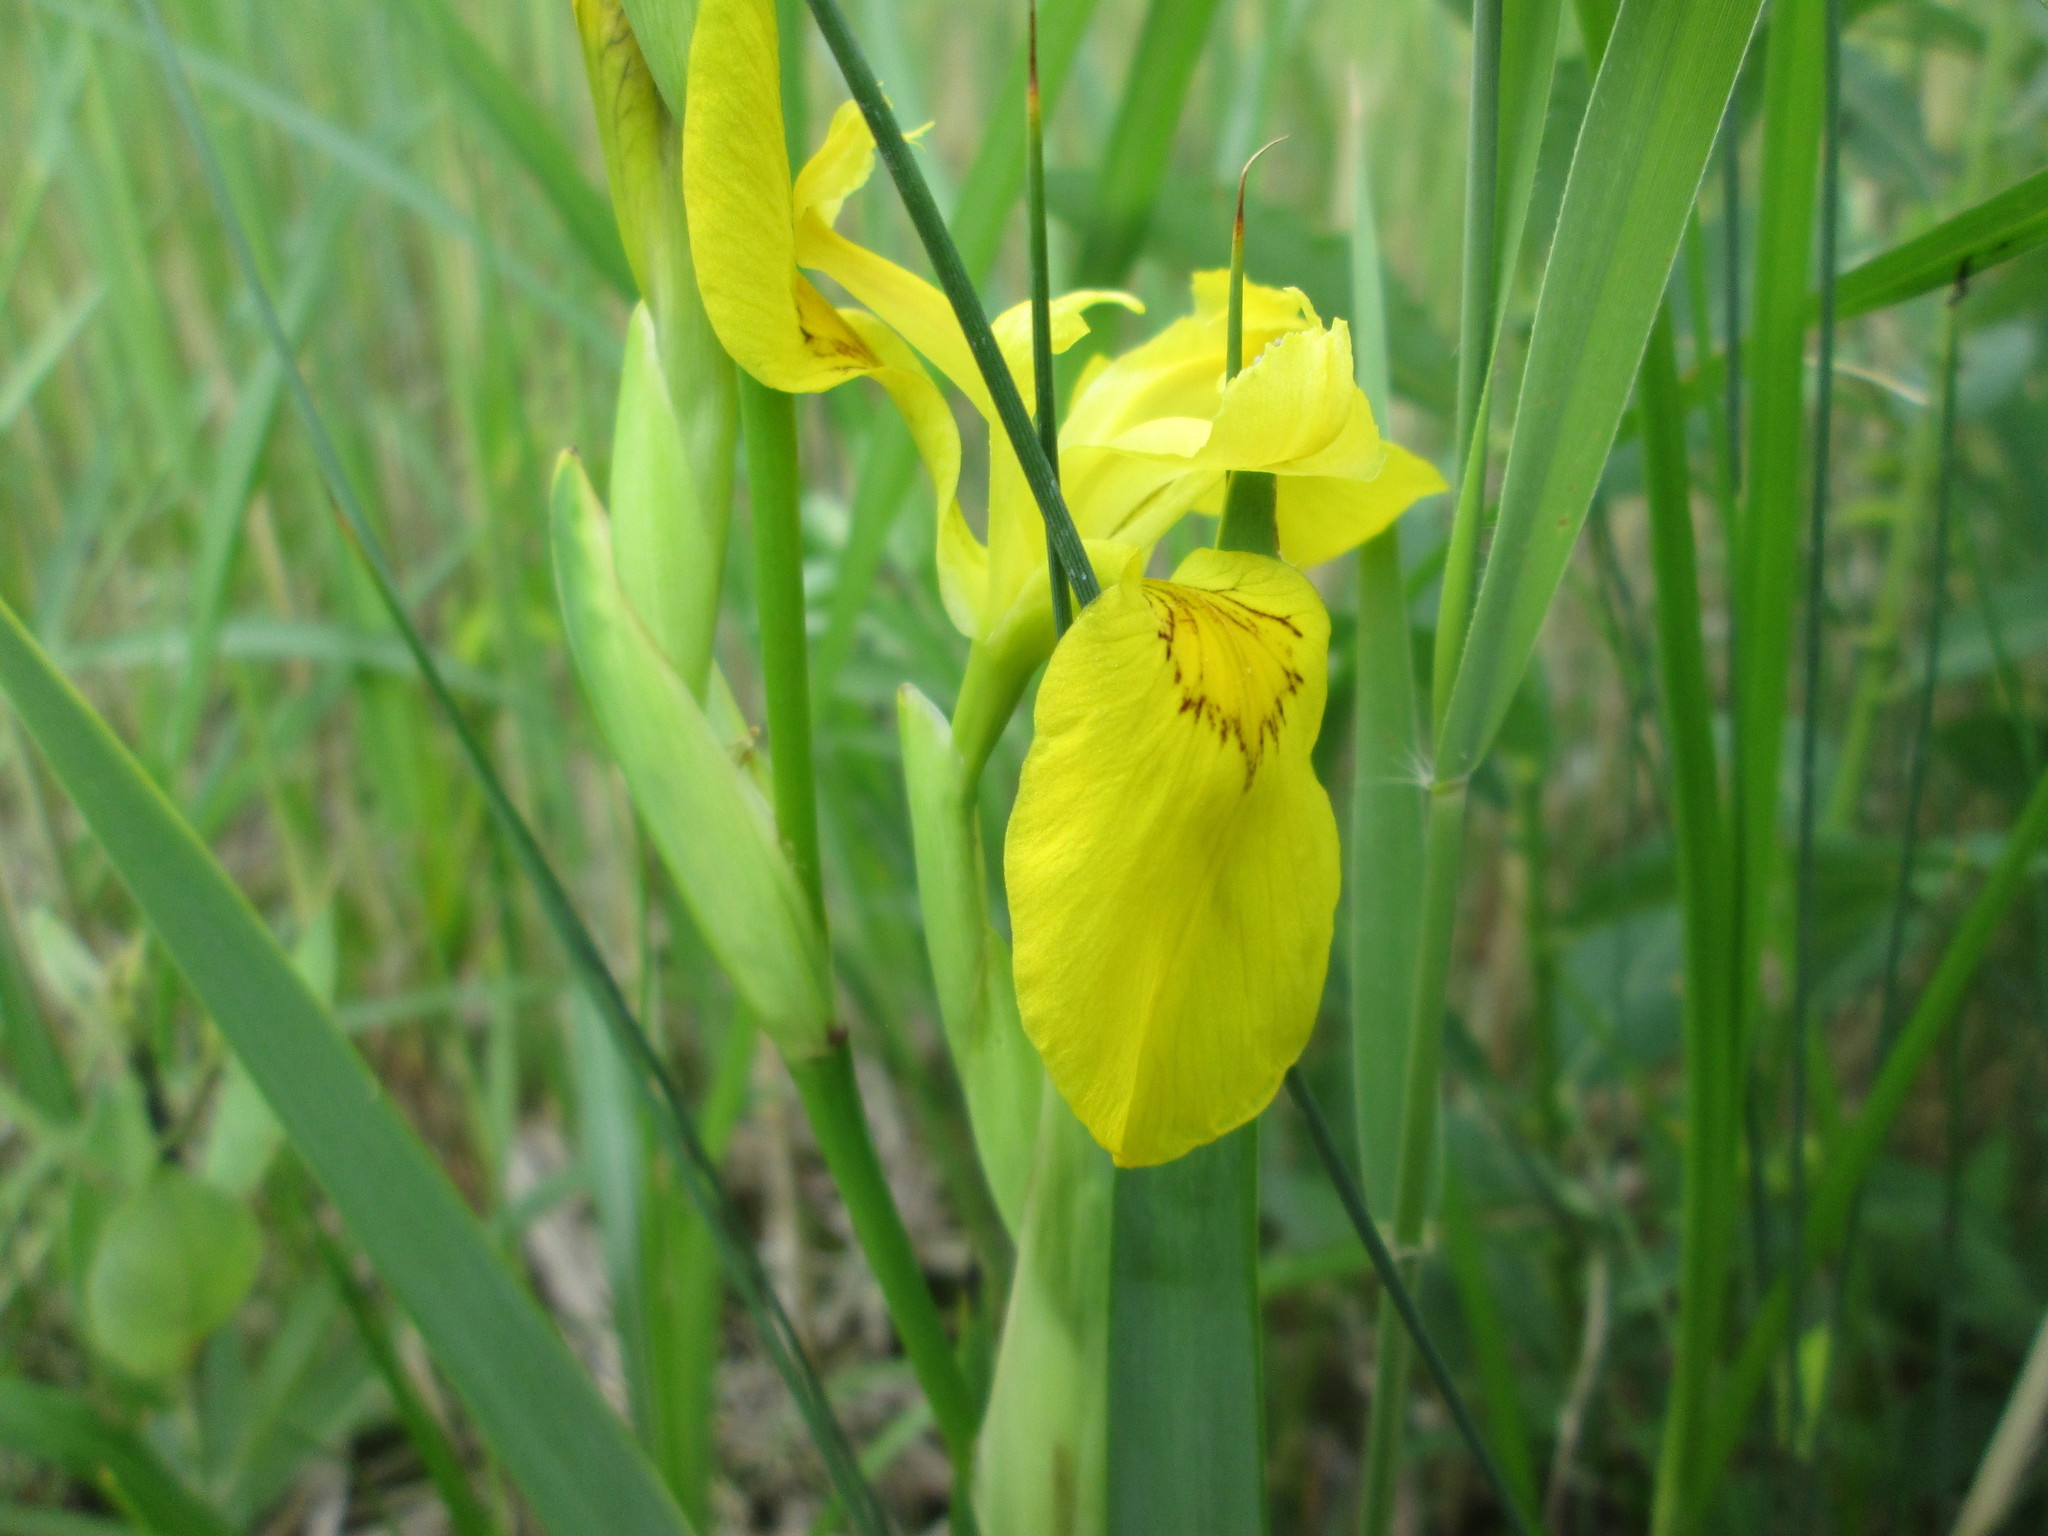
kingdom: Plantae
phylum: Tracheophyta
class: Liliopsida
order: Asparagales
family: Iridaceae
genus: Iris
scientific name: Iris pseudacorus
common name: Yellow flag
